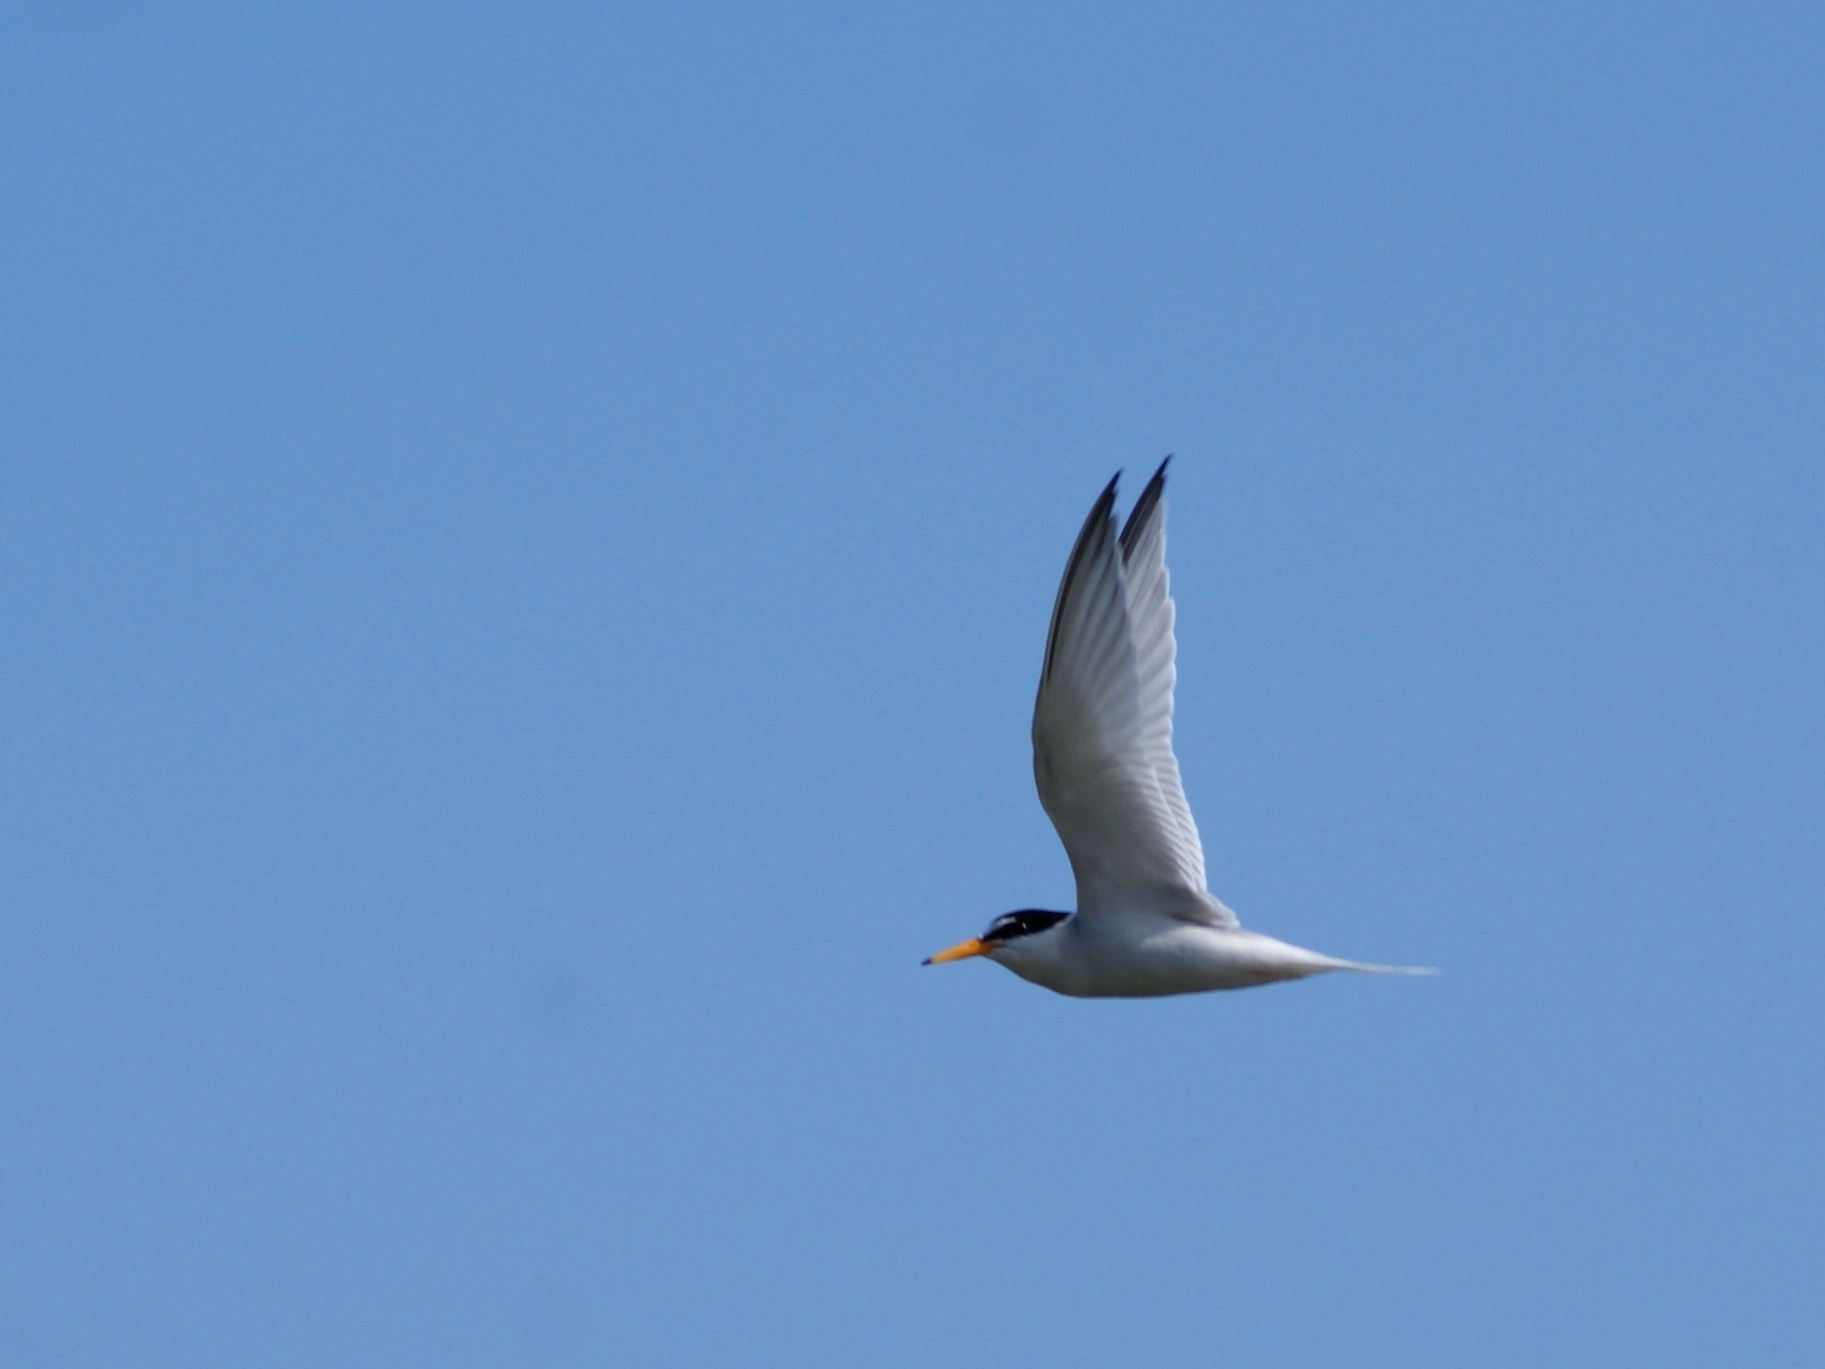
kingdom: Animalia
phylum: Chordata
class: Aves
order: Charadriiformes
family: Laridae
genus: Sternula
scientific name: Sternula albifrons
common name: Little tern
